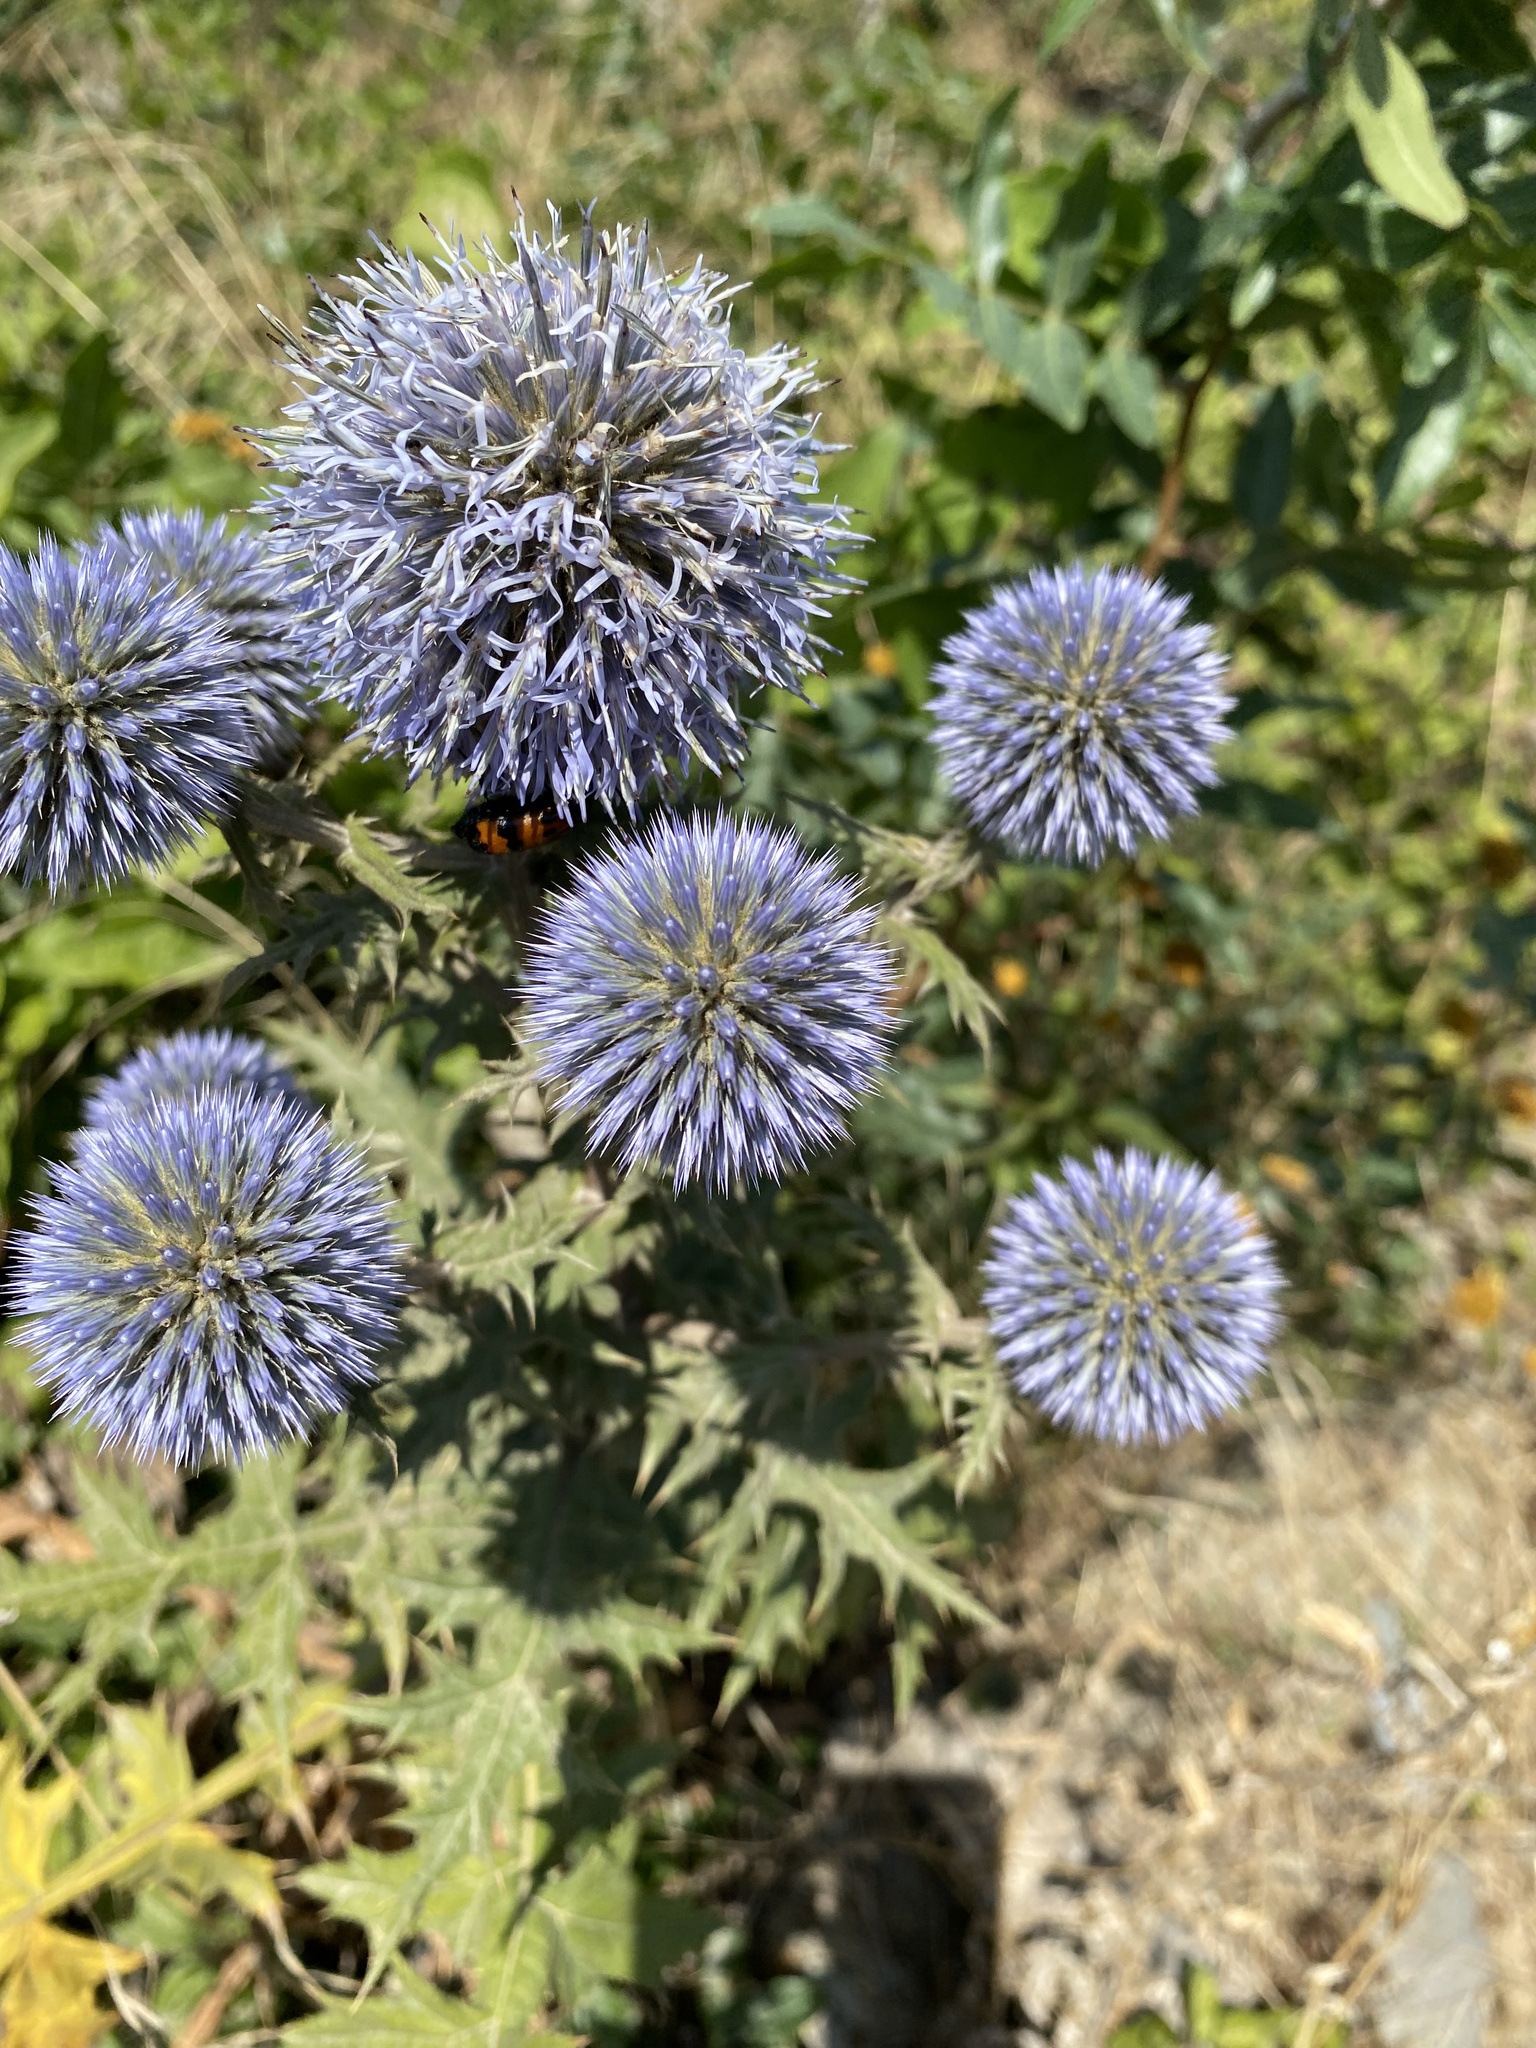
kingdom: Plantae
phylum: Tracheophyta
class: Magnoliopsida
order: Asterales
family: Asteraceae
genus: Echinops
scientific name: Echinops ritro
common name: Globe thistle
